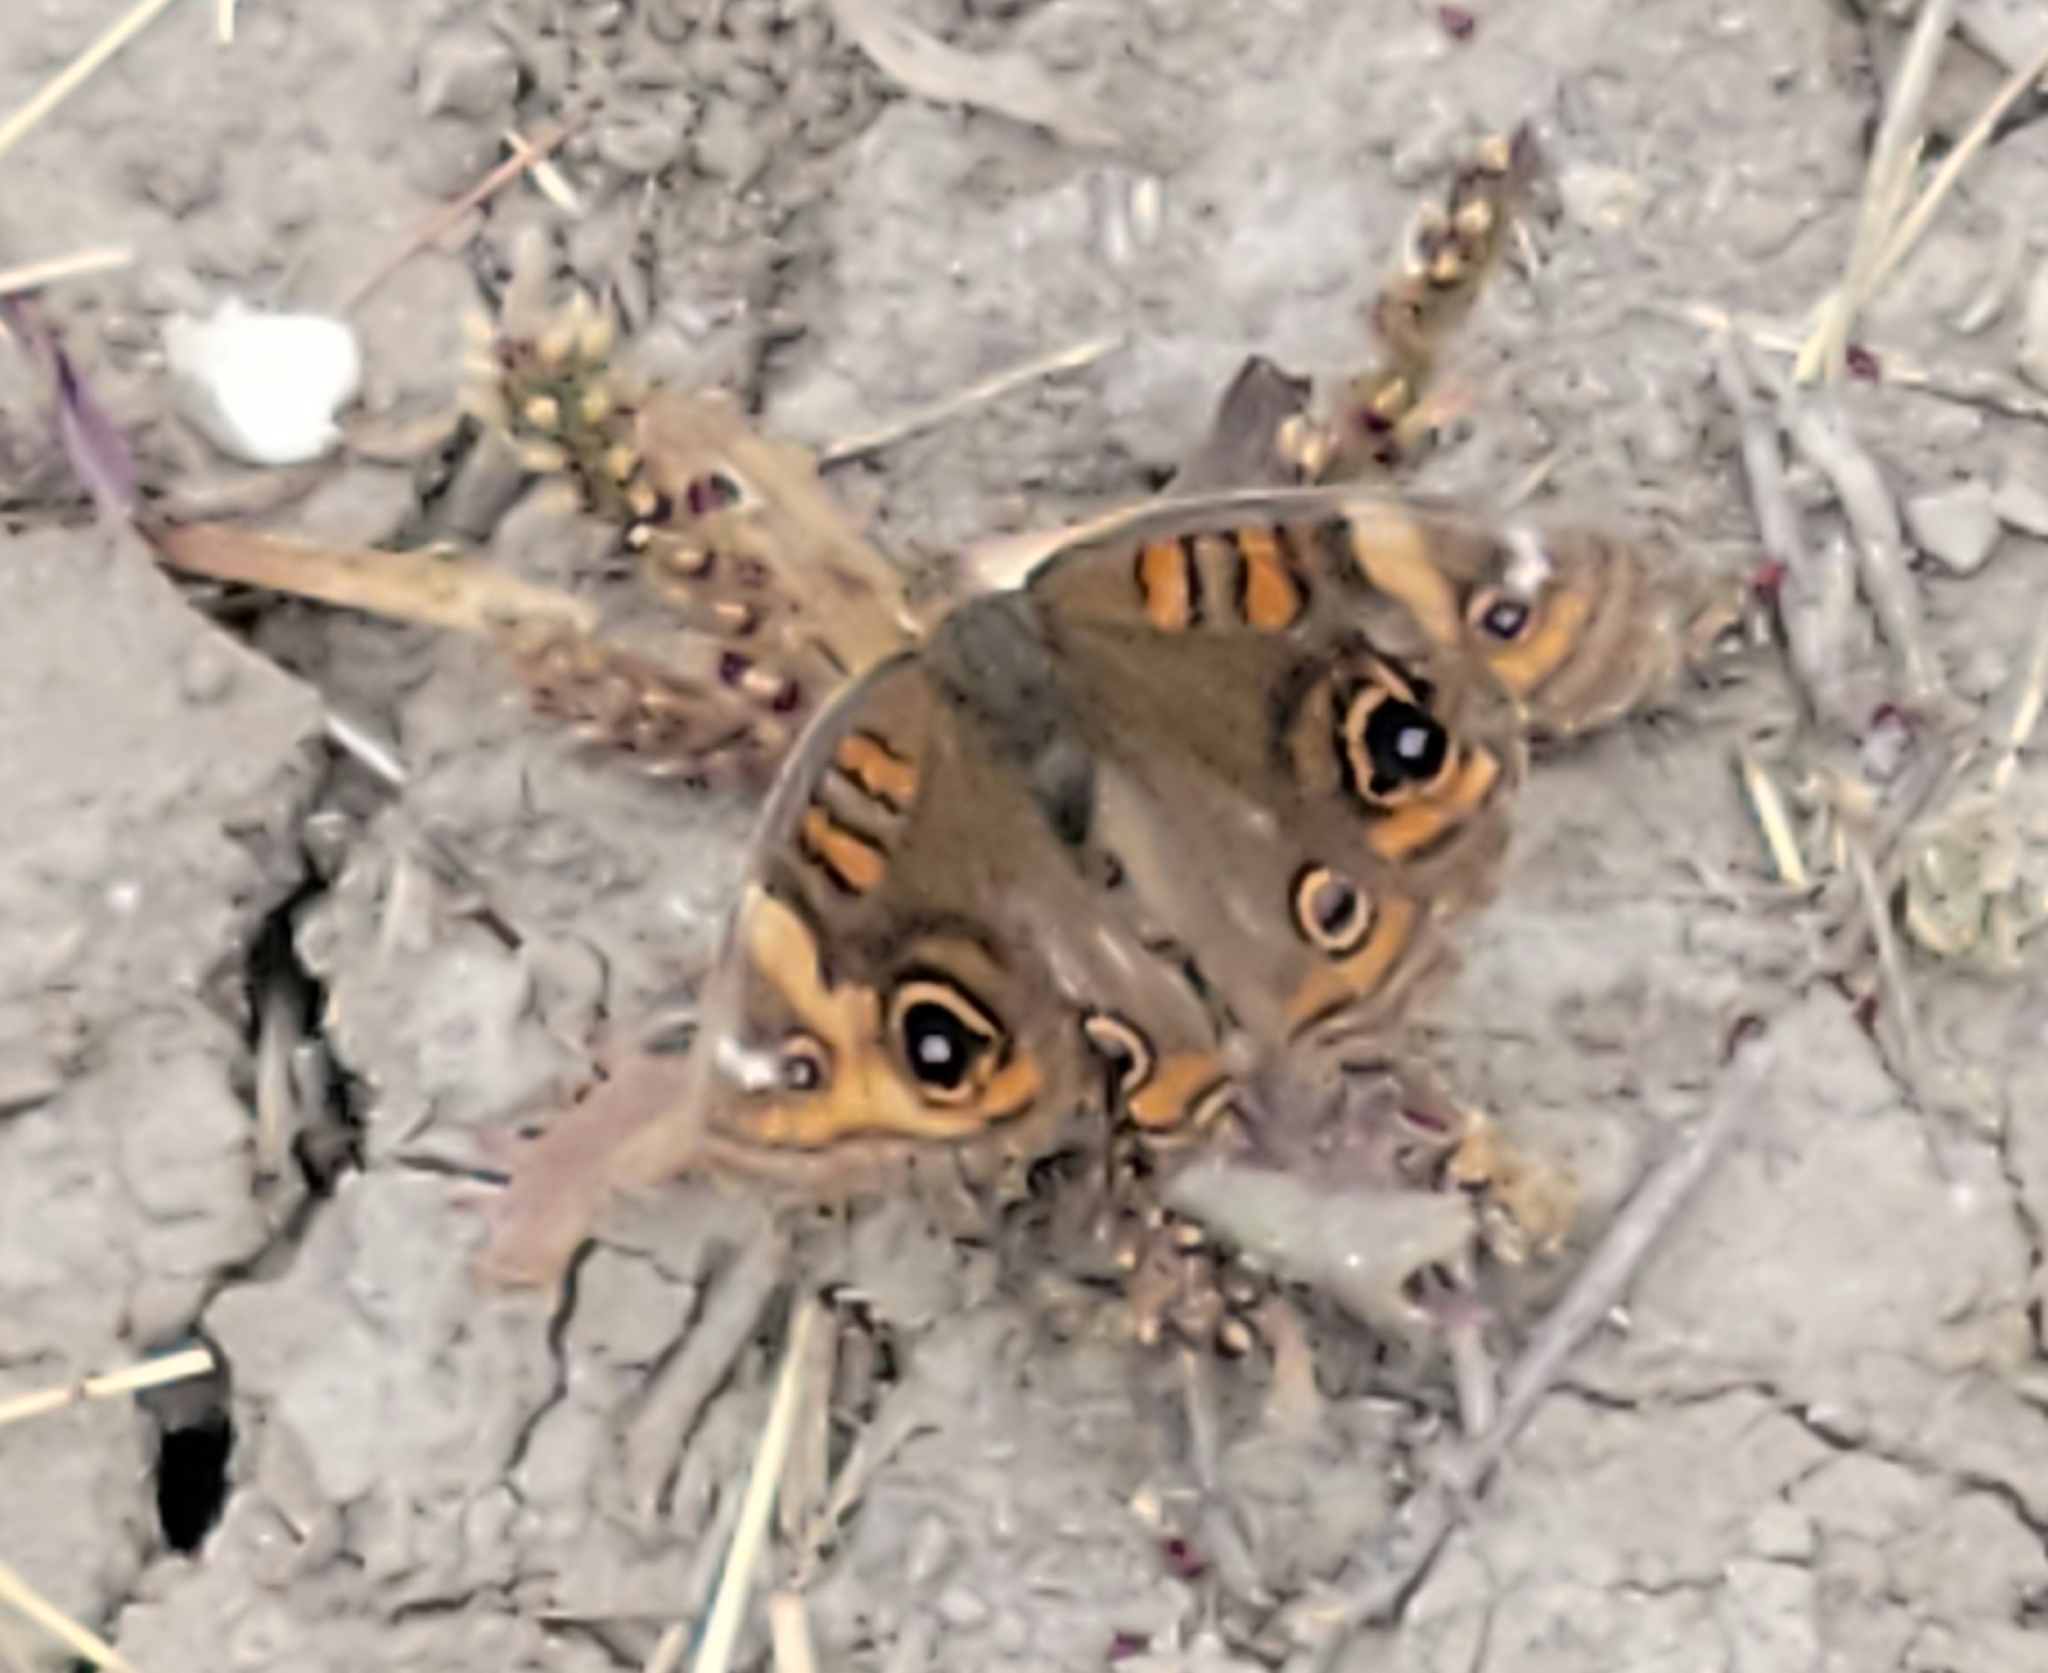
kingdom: Animalia
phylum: Arthropoda
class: Insecta
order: Lepidoptera
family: Nymphalidae
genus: Junonia
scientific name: Junonia stemosa
